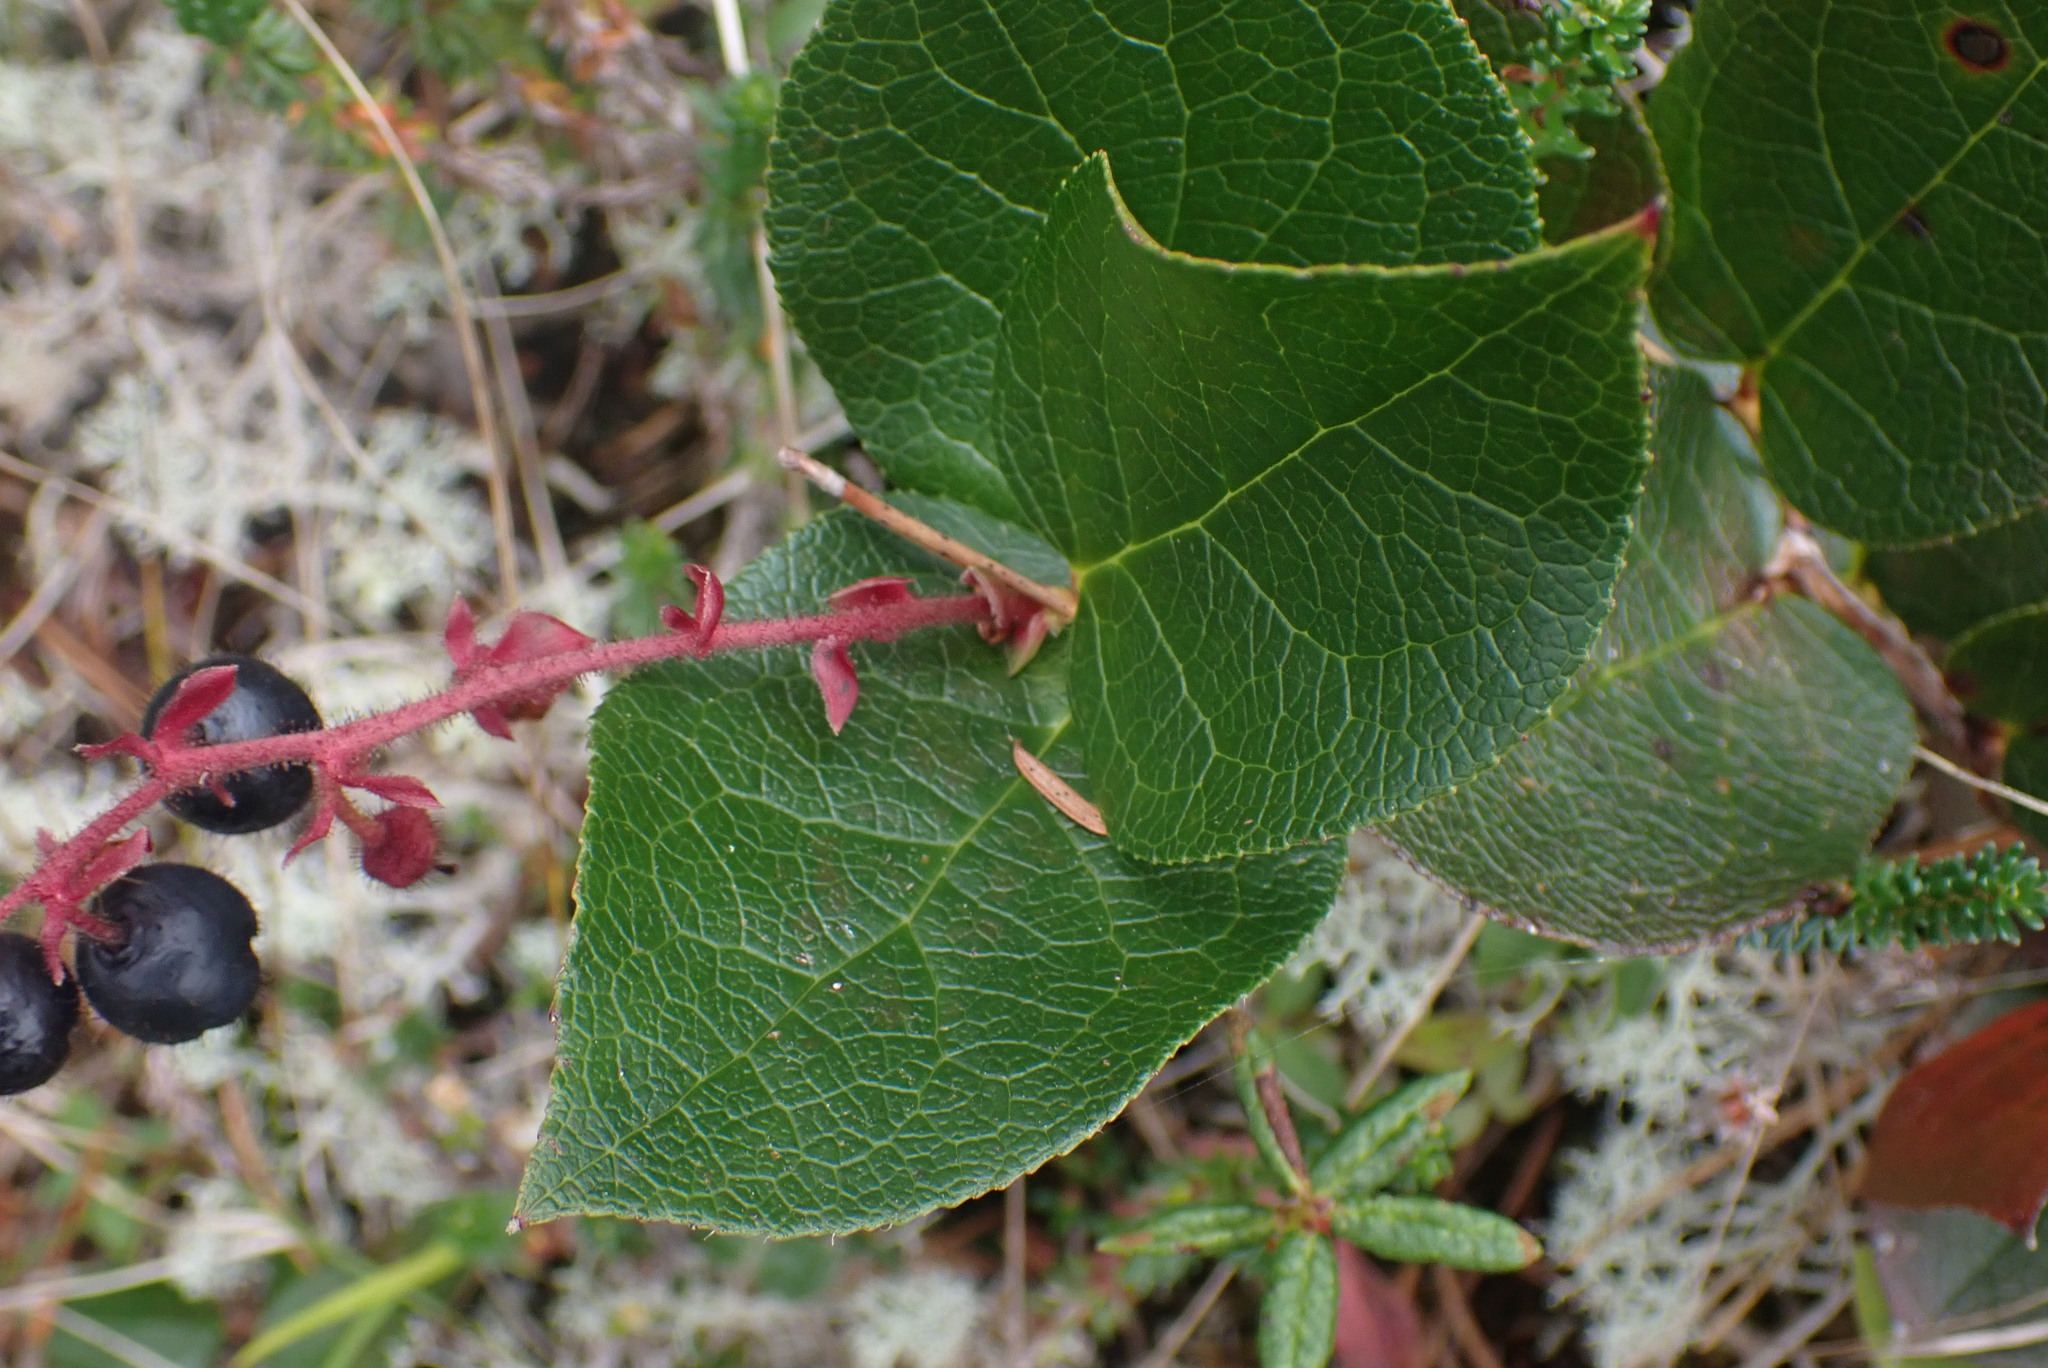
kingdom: Plantae
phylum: Tracheophyta
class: Magnoliopsida
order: Ericales
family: Ericaceae
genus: Gaultheria
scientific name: Gaultheria shallon
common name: Shallon
